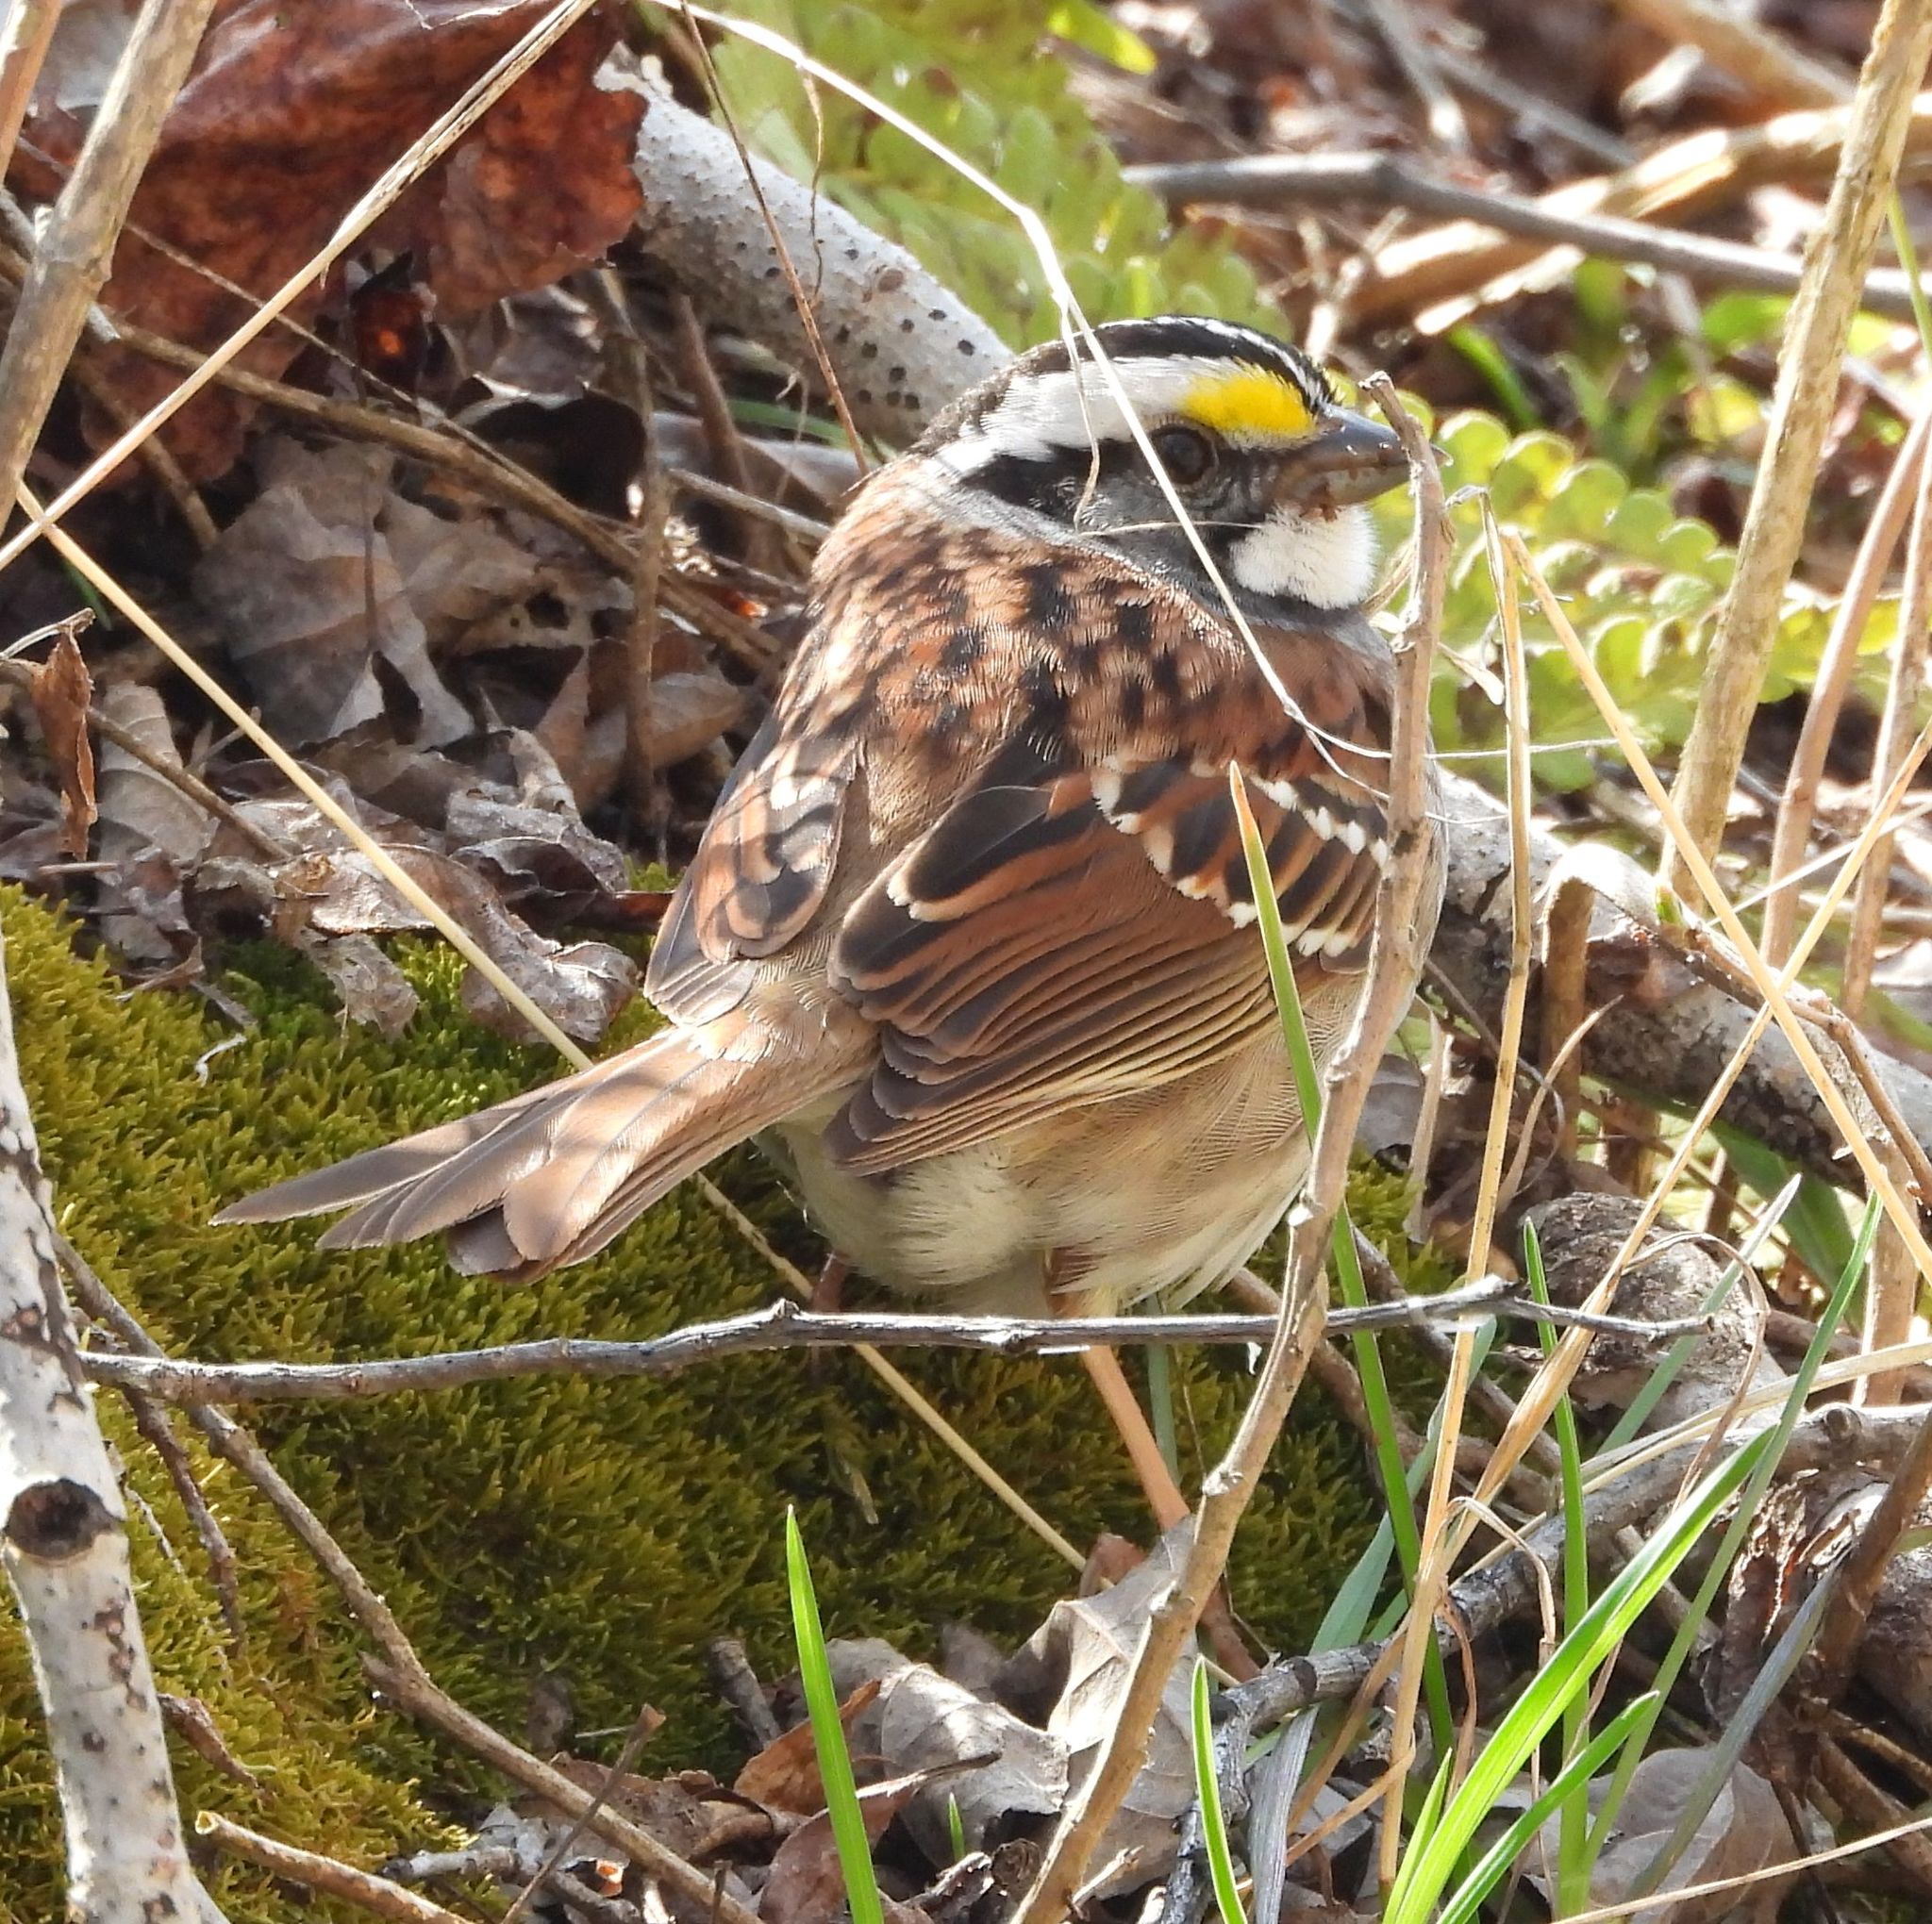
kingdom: Animalia
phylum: Chordata
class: Aves
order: Passeriformes
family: Passerellidae
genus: Zonotrichia
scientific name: Zonotrichia albicollis
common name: White-throated sparrow
